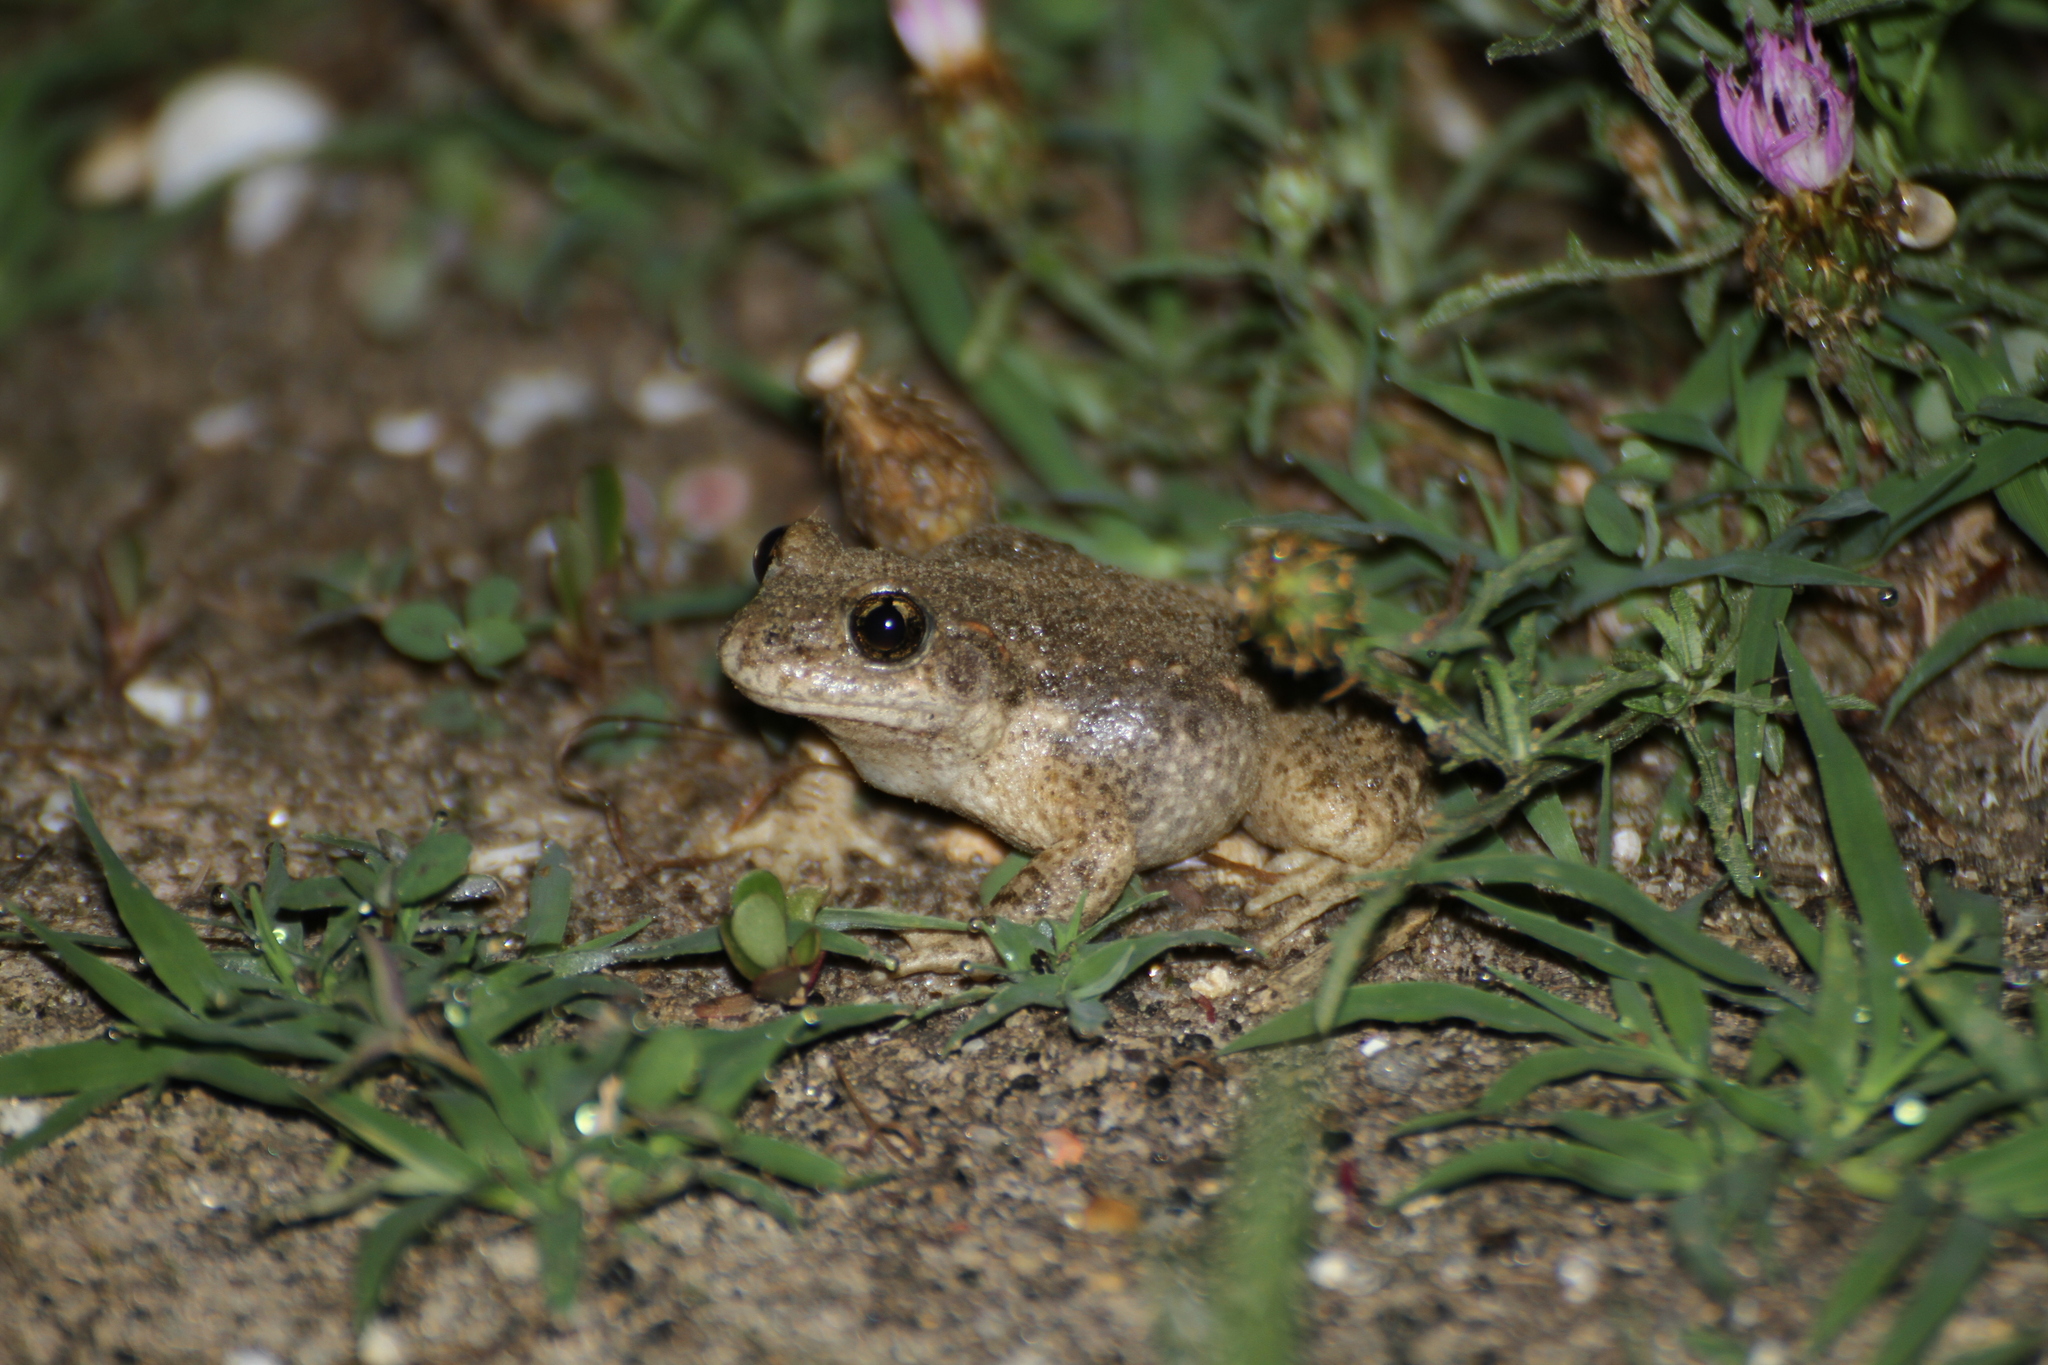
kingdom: Animalia
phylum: Chordata
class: Amphibia
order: Anura
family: Alytidae
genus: Alytes
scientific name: Alytes obstetricans
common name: Midwife toad
